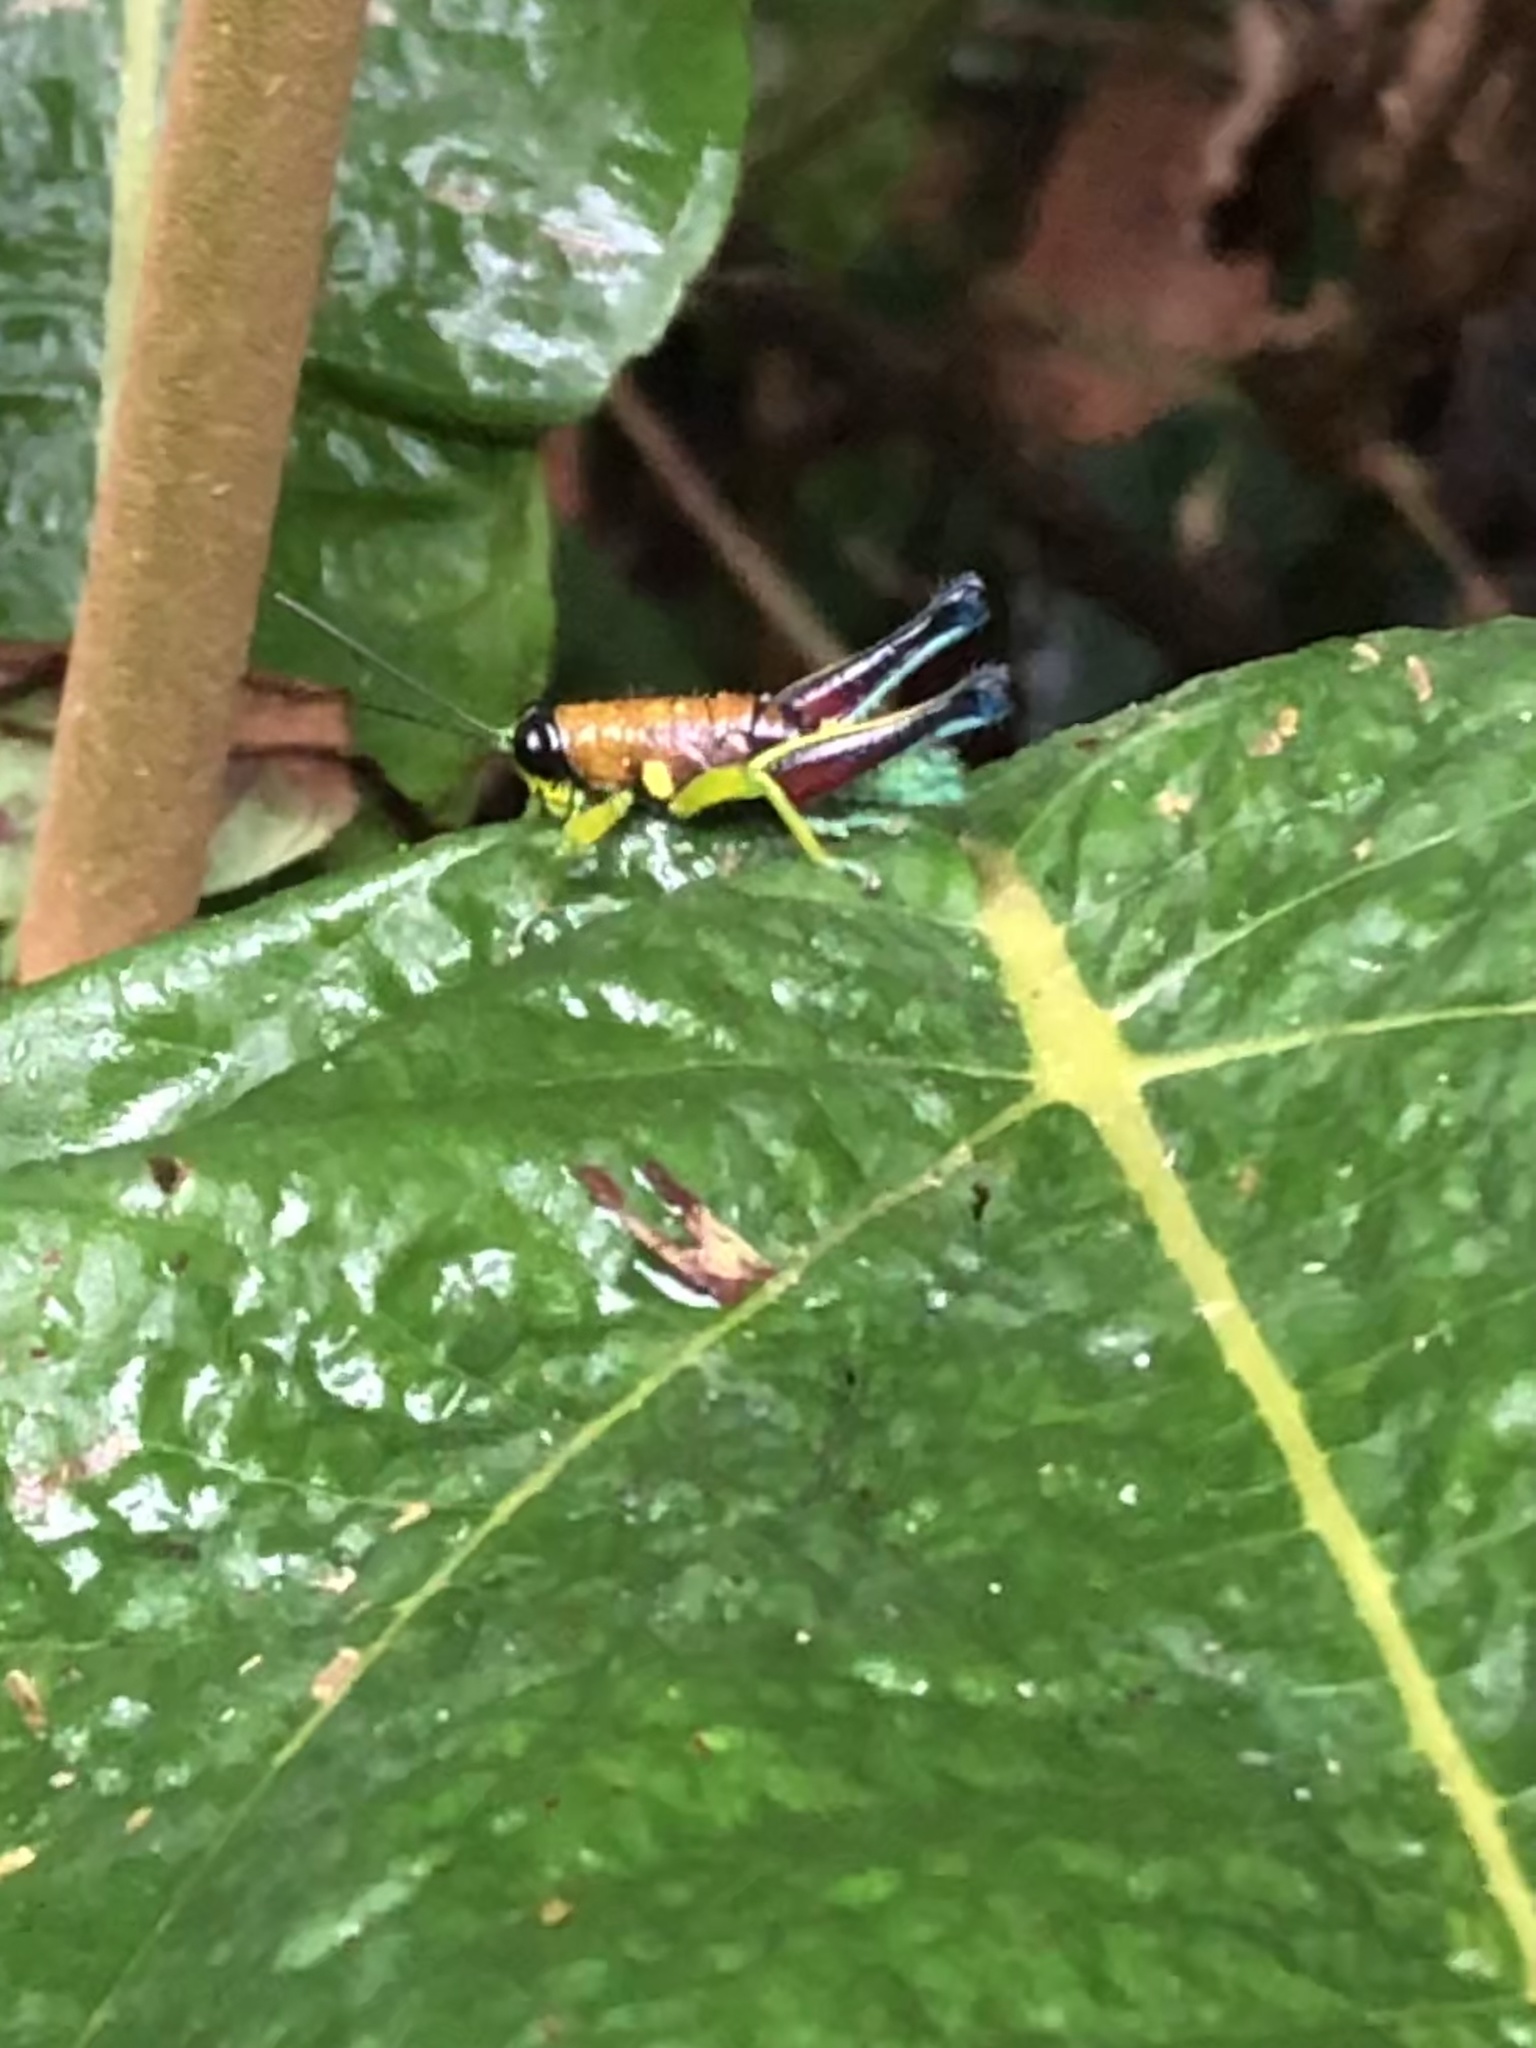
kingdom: Animalia
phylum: Arthropoda
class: Insecta
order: Orthoptera
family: Acrididae
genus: Psiloscirtus
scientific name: Psiloscirtus bolivianus
